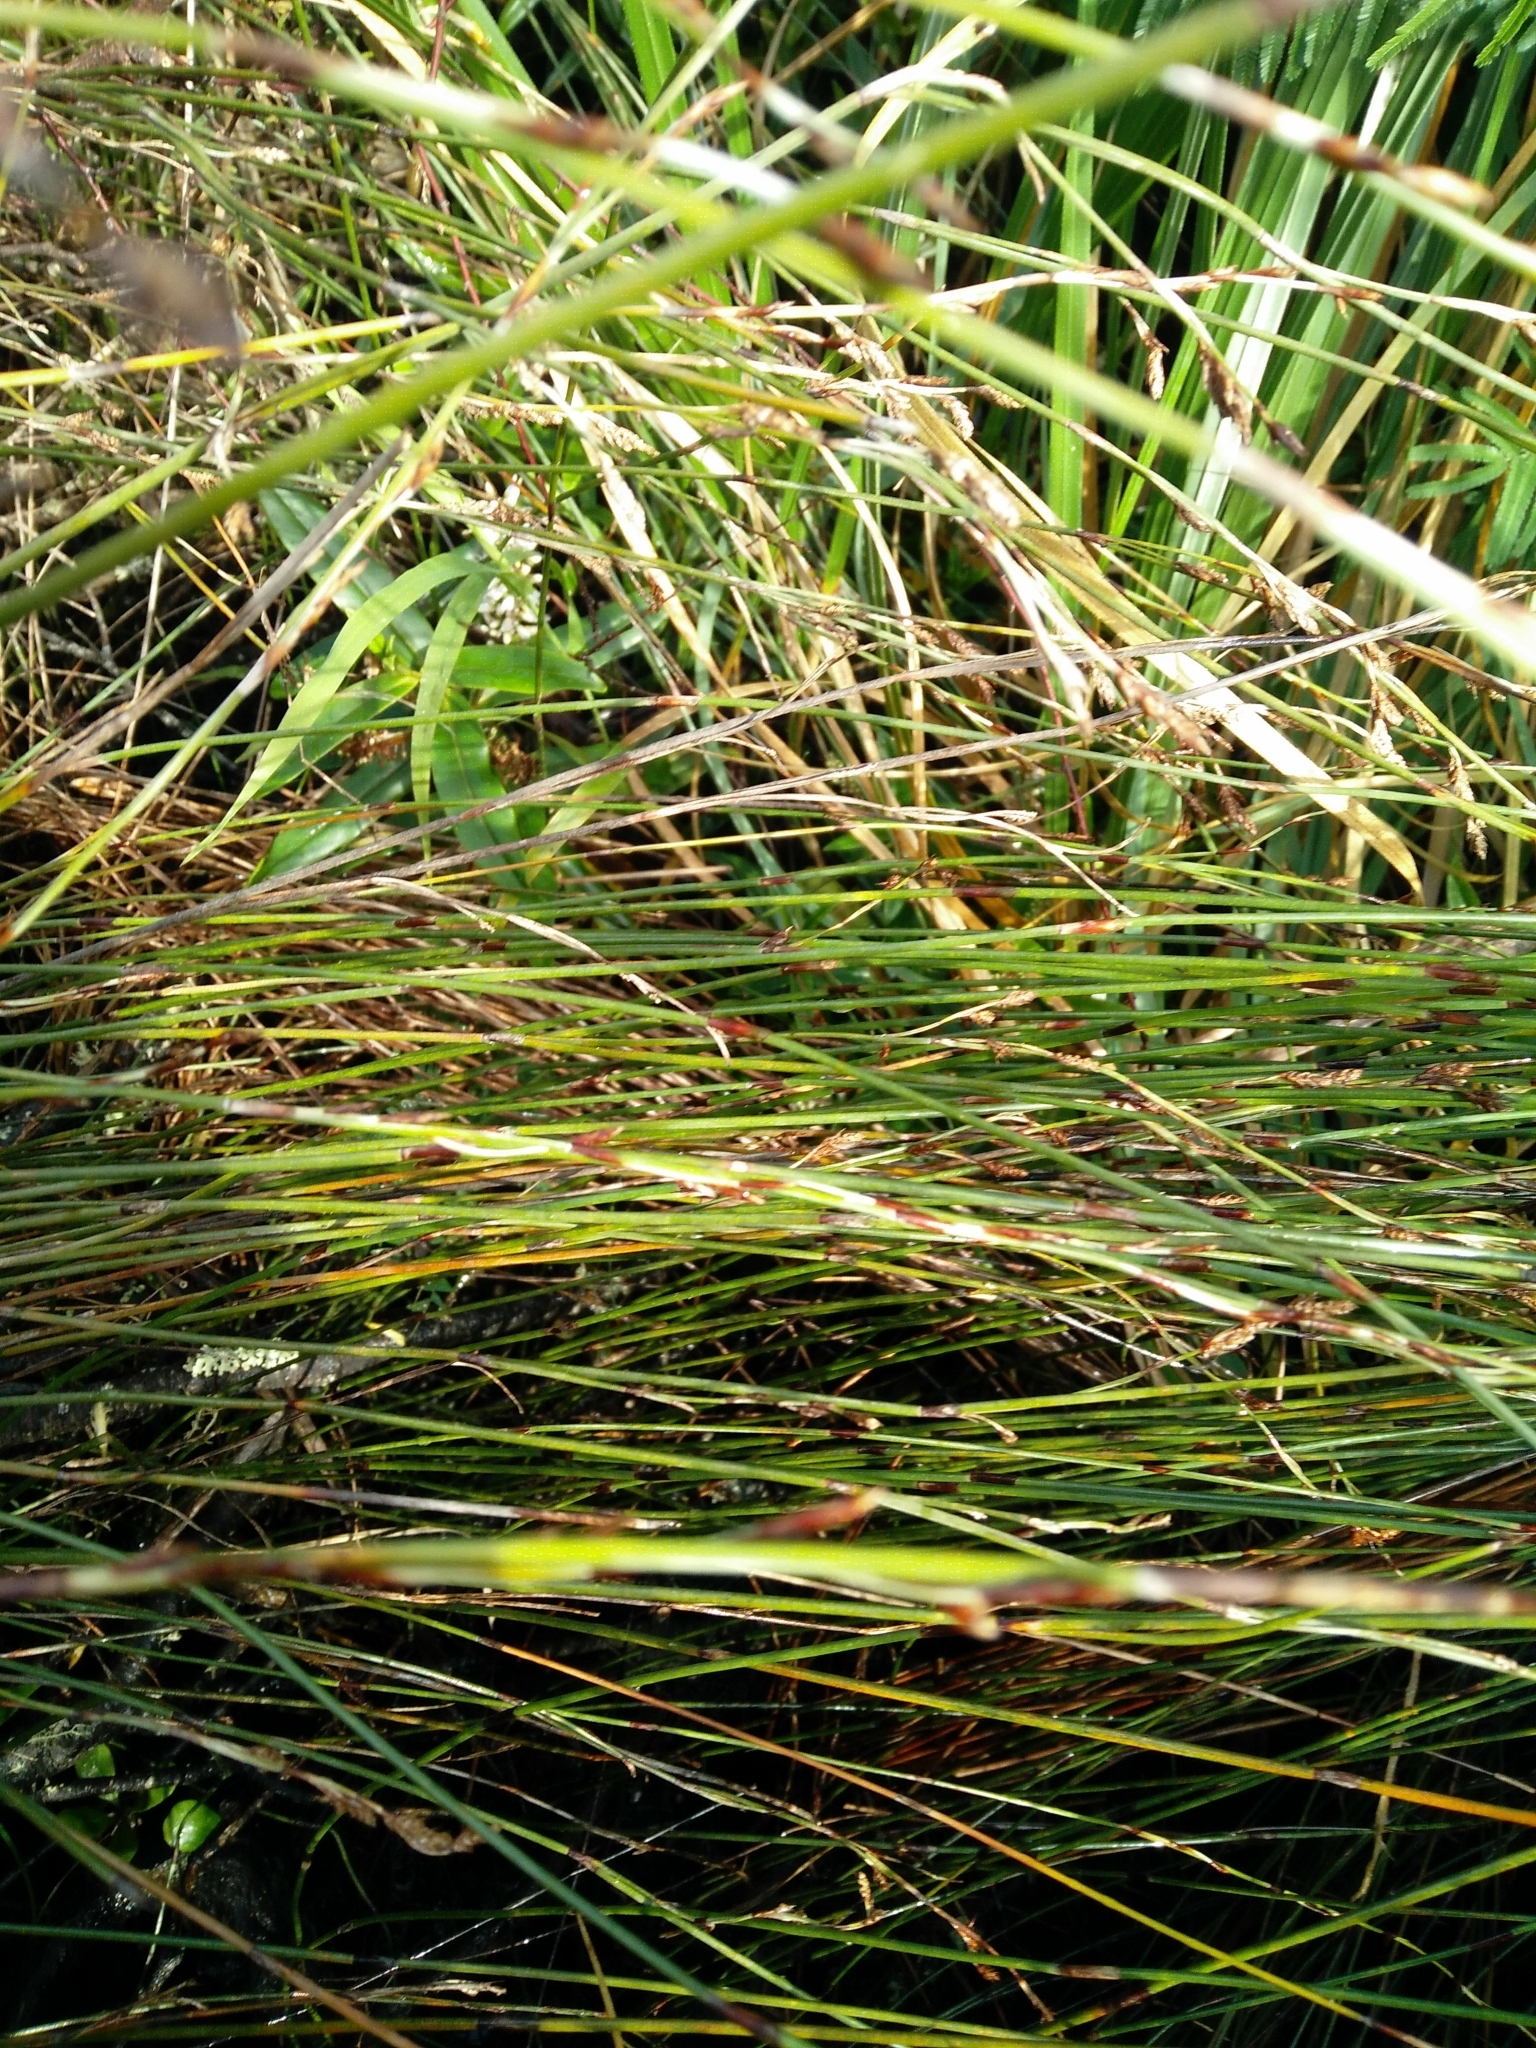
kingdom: Plantae
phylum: Tracheophyta
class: Liliopsida
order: Poales
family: Restionaceae
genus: Apodasmia
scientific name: Apodasmia similis
